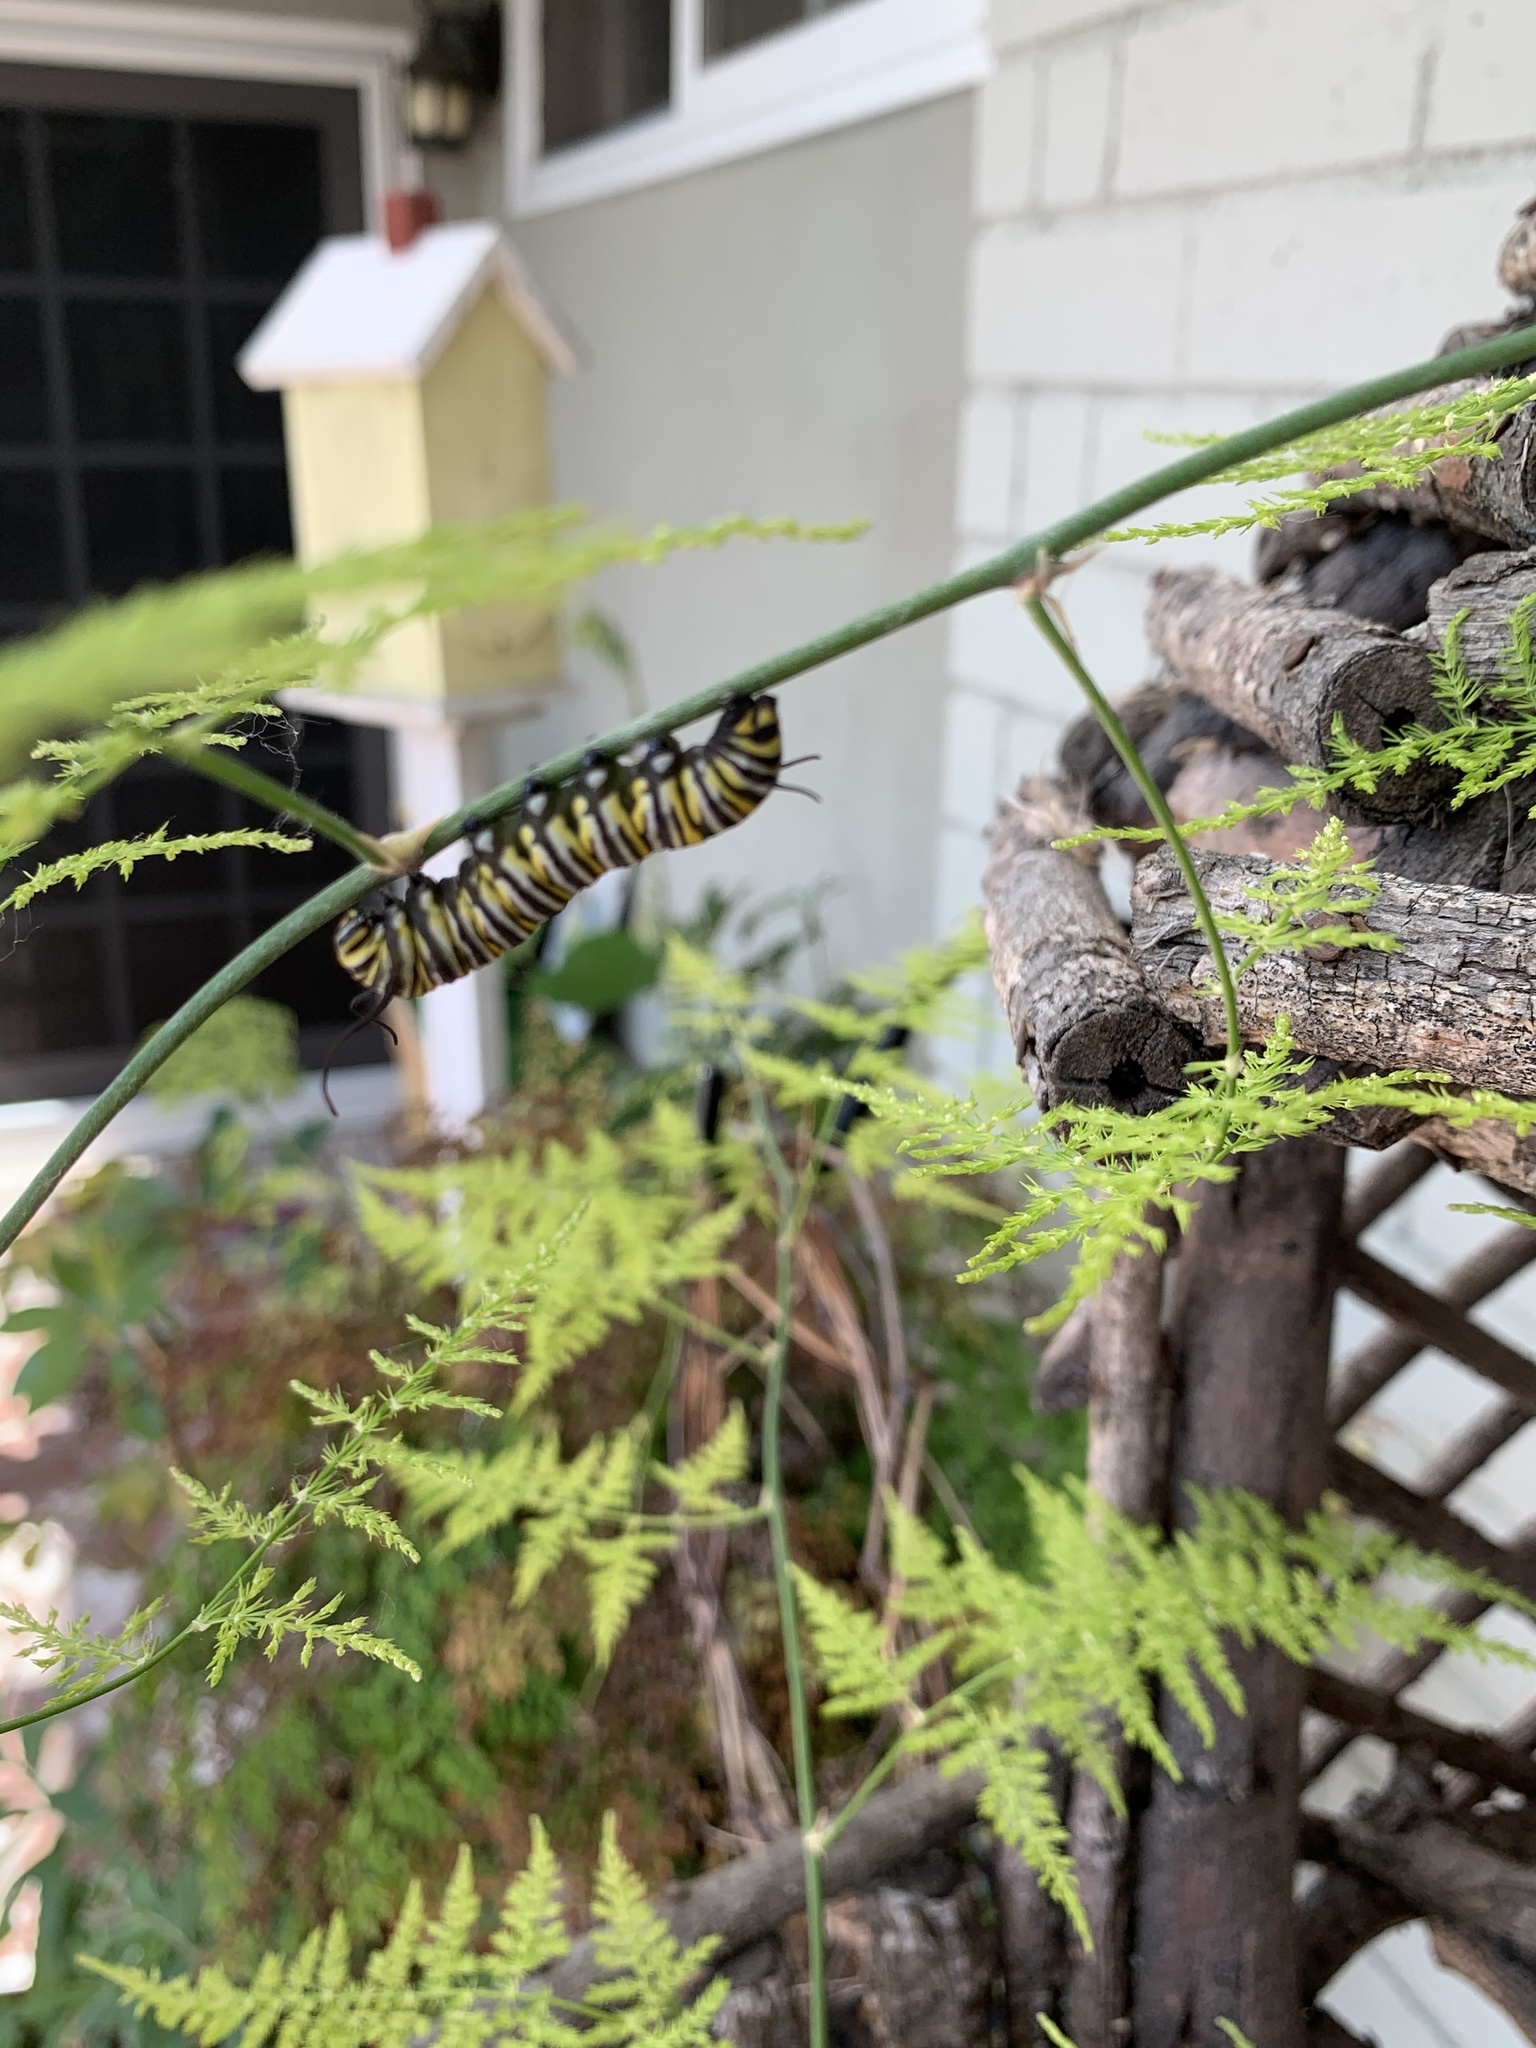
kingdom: Animalia
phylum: Arthropoda
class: Insecta
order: Lepidoptera
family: Nymphalidae
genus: Danaus
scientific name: Danaus plexippus
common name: Monarch
